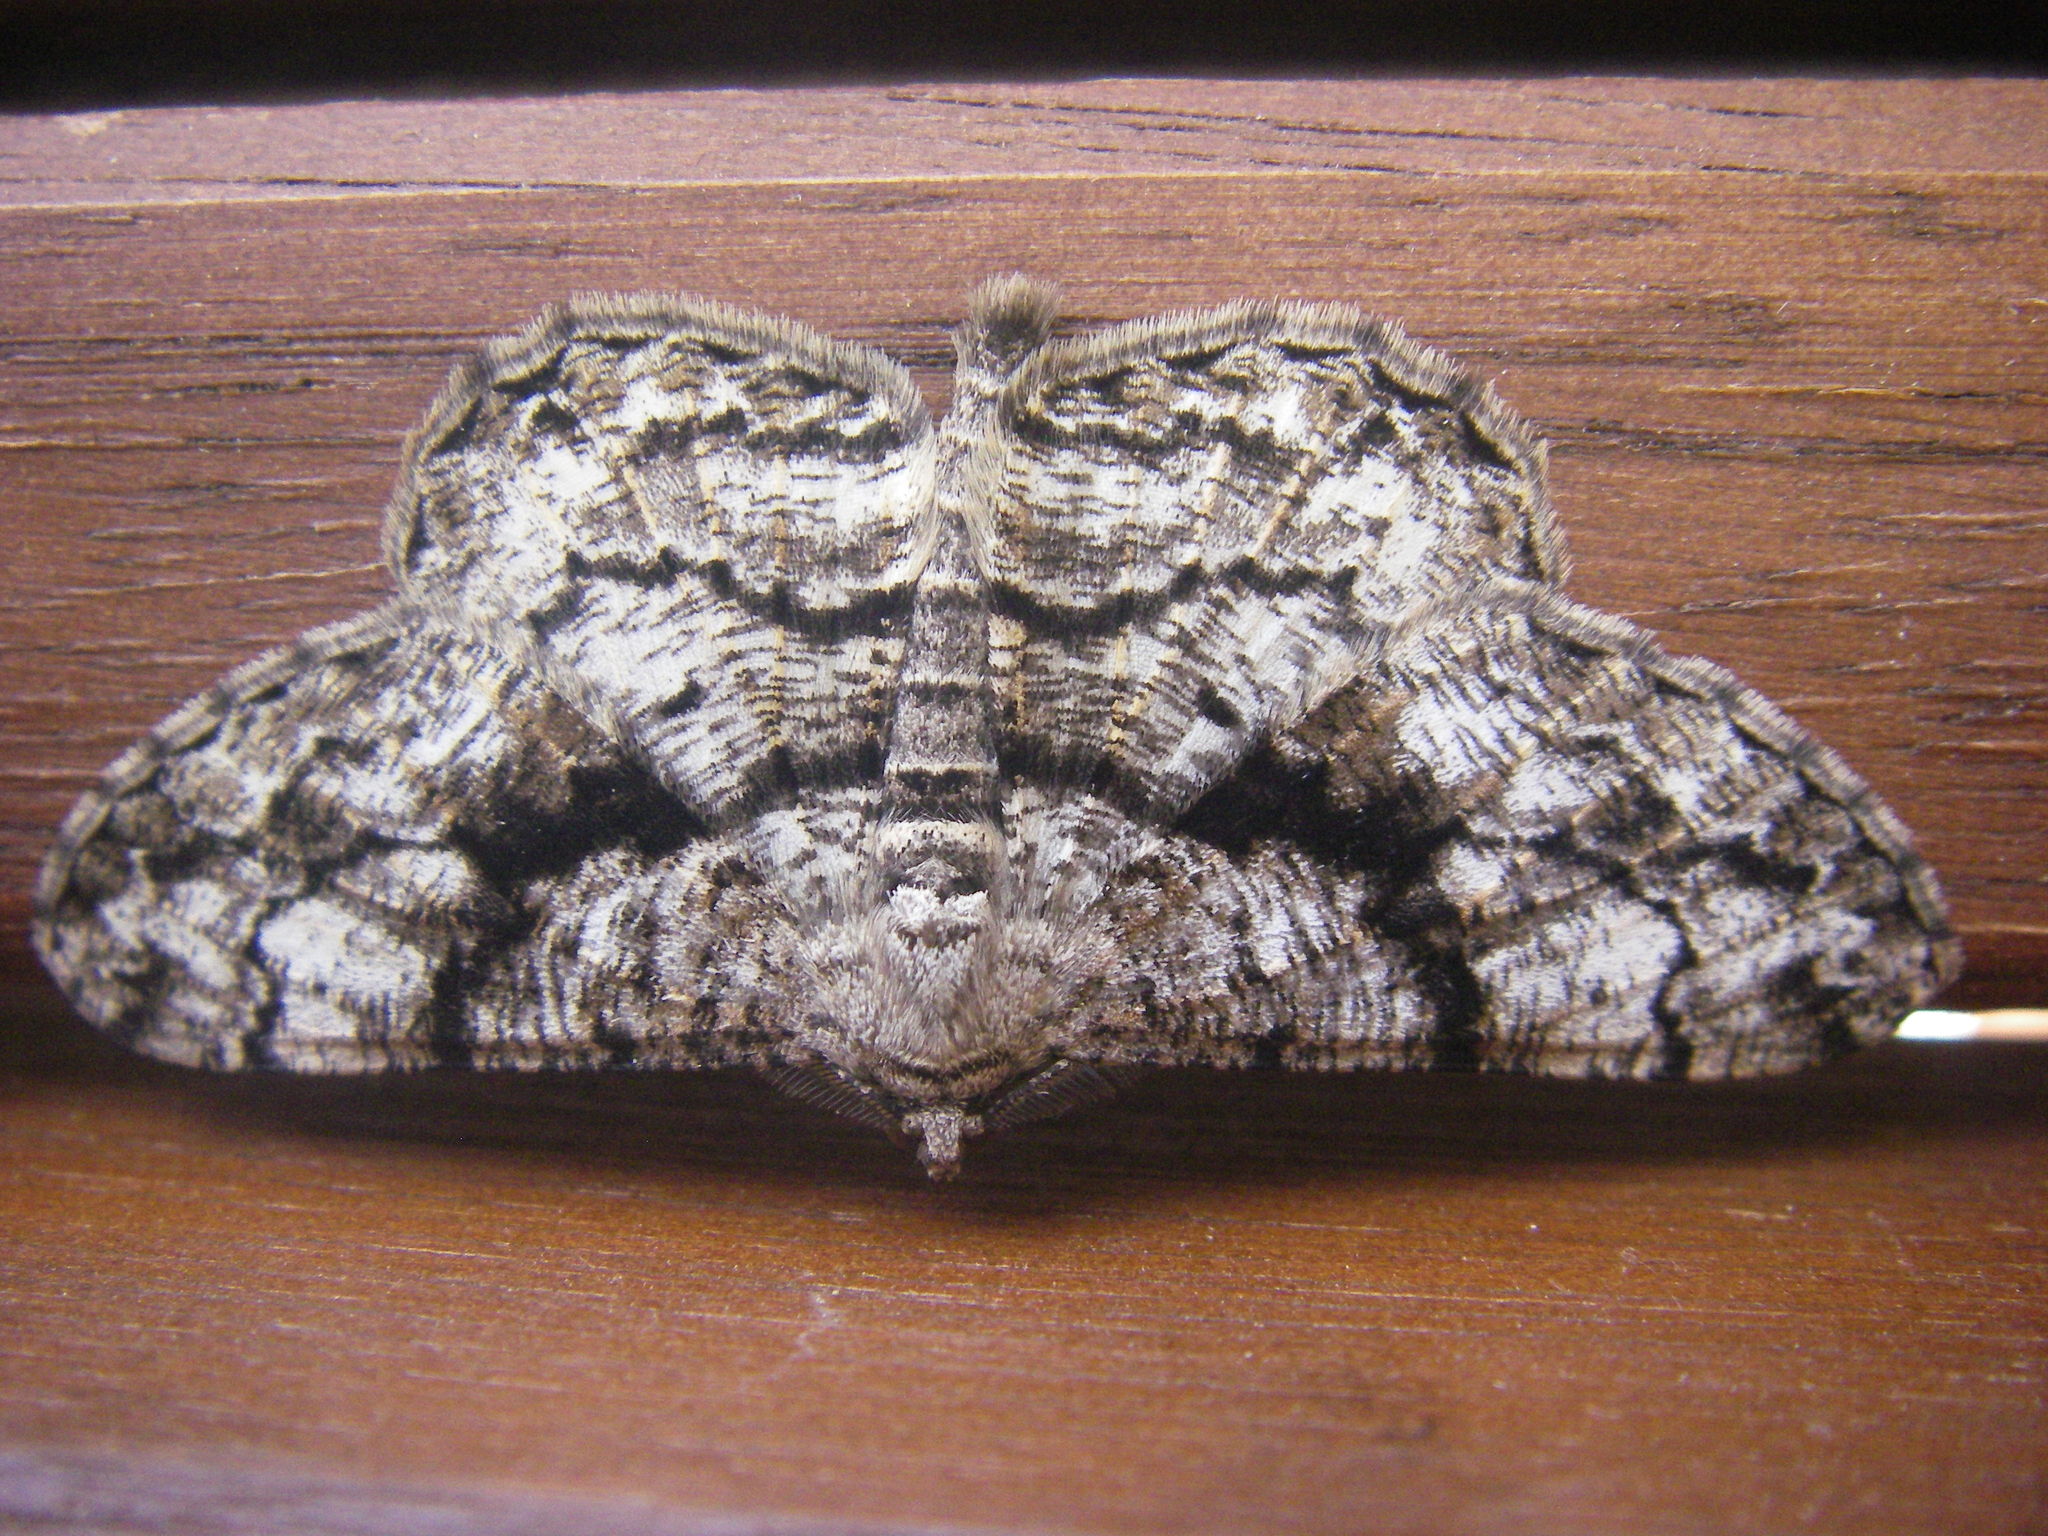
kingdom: Animalia
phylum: Arthropoda
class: Insecta
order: Lepidoptera
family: Geometridae
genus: Peribatodes
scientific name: Peribatodes umbraria
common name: Olive-tree beauty
